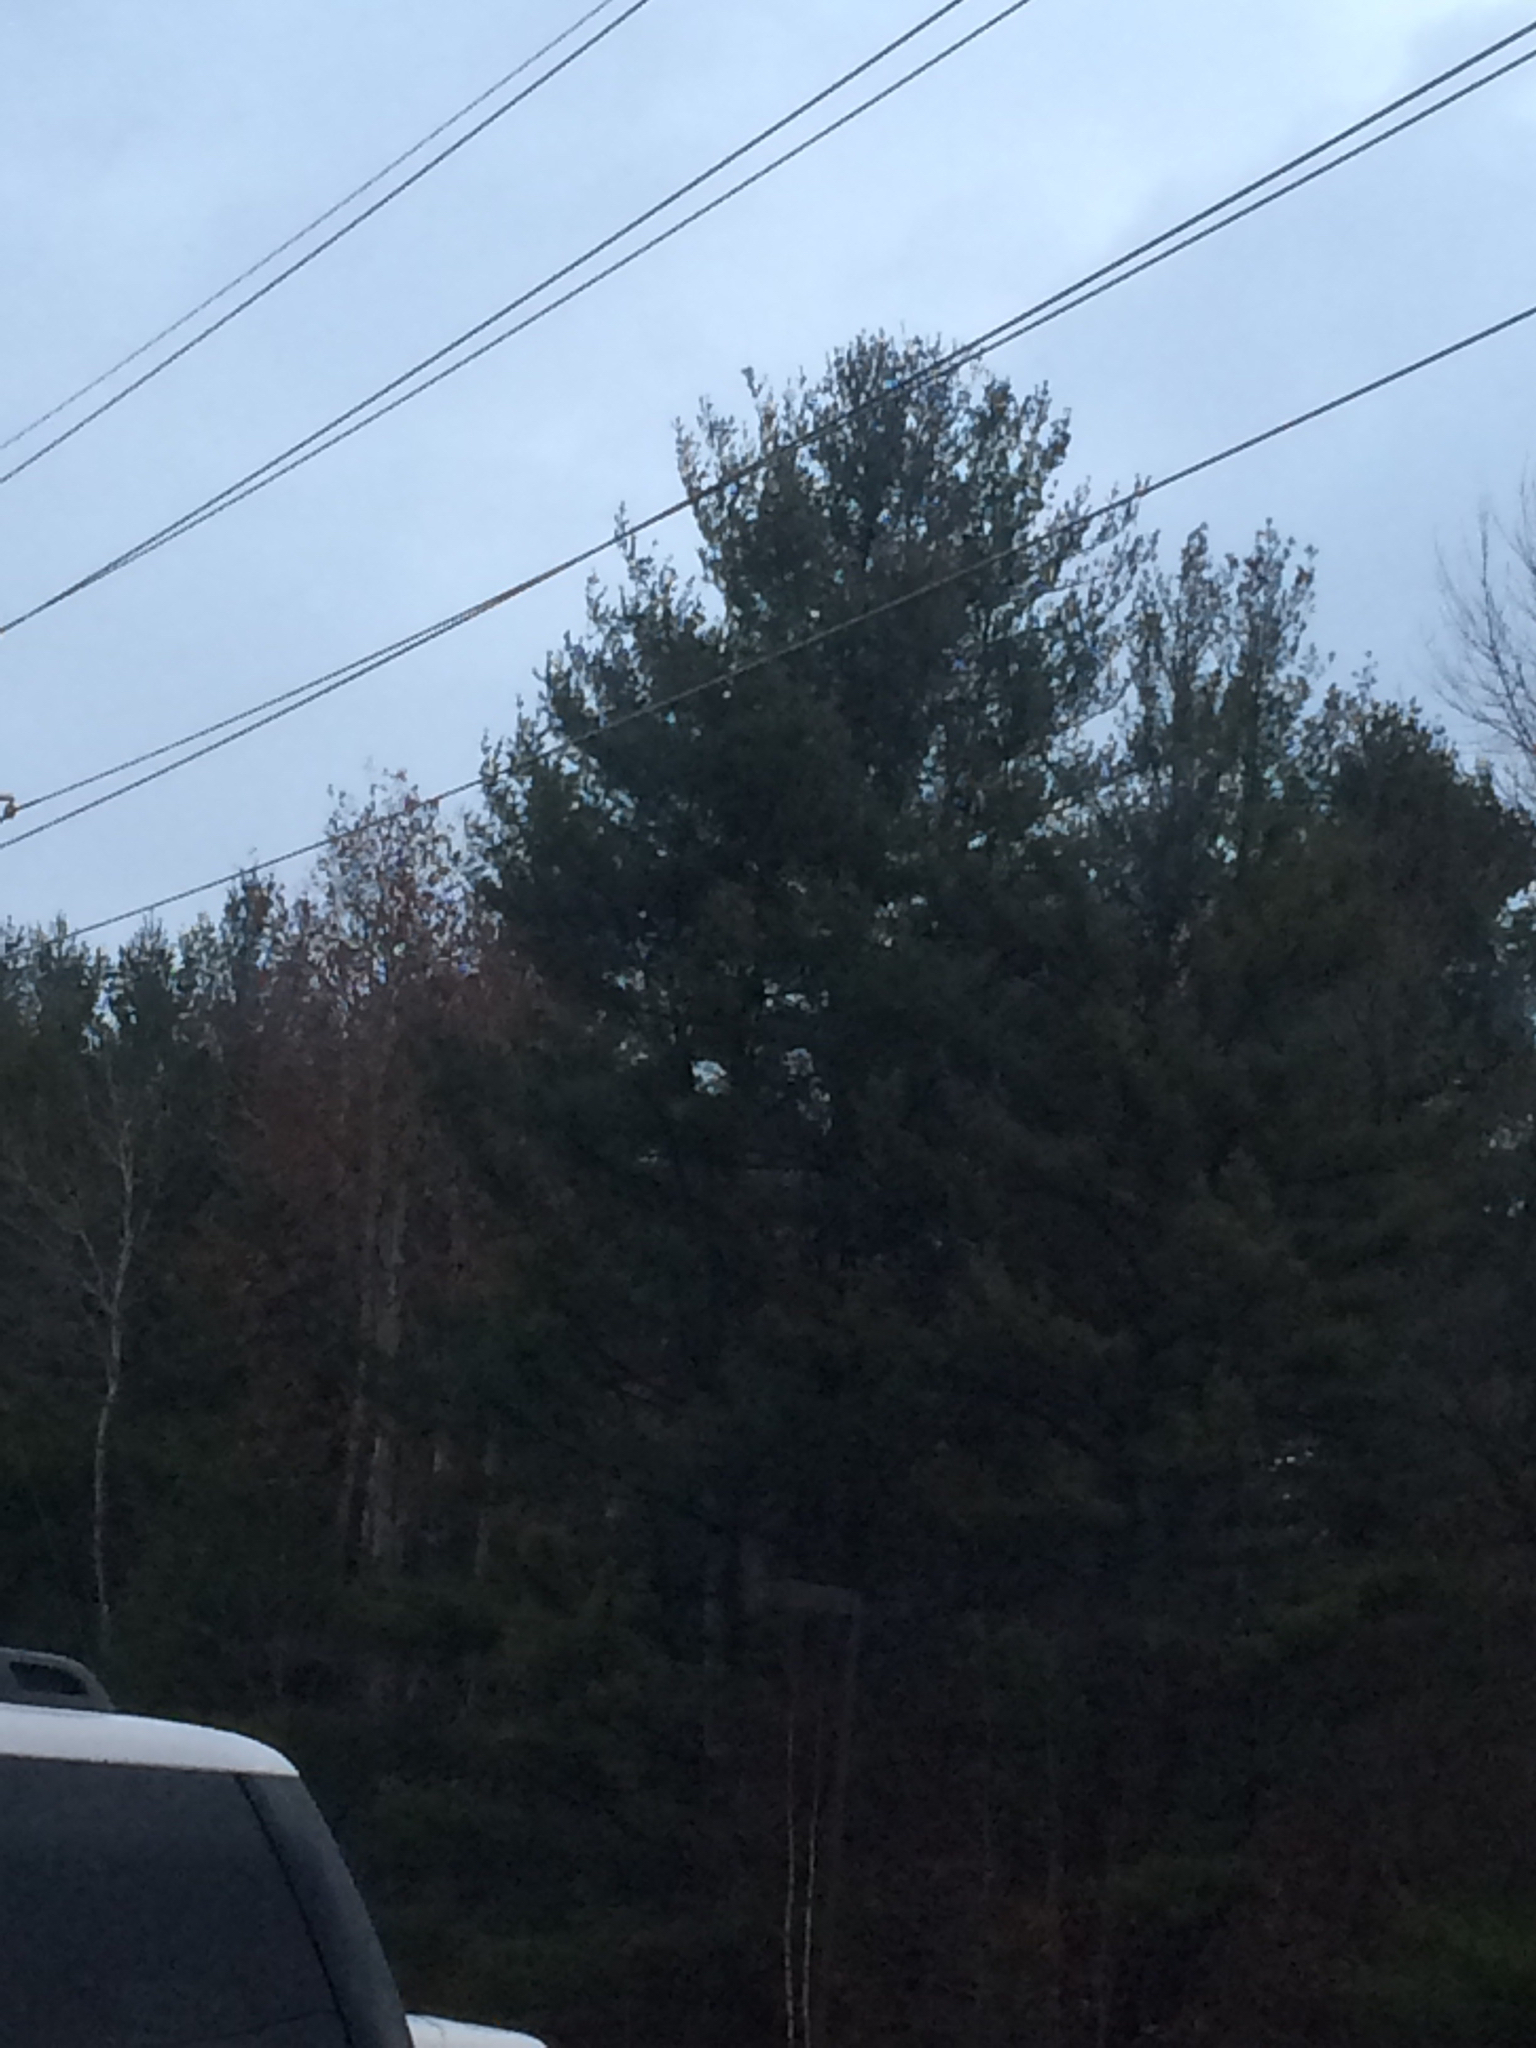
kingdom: Plantae
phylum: Tracheophyta
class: Pinopsida
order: Pinales
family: Pinaceae
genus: Pinus
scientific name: Pinus strobus
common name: Weymouth pine
